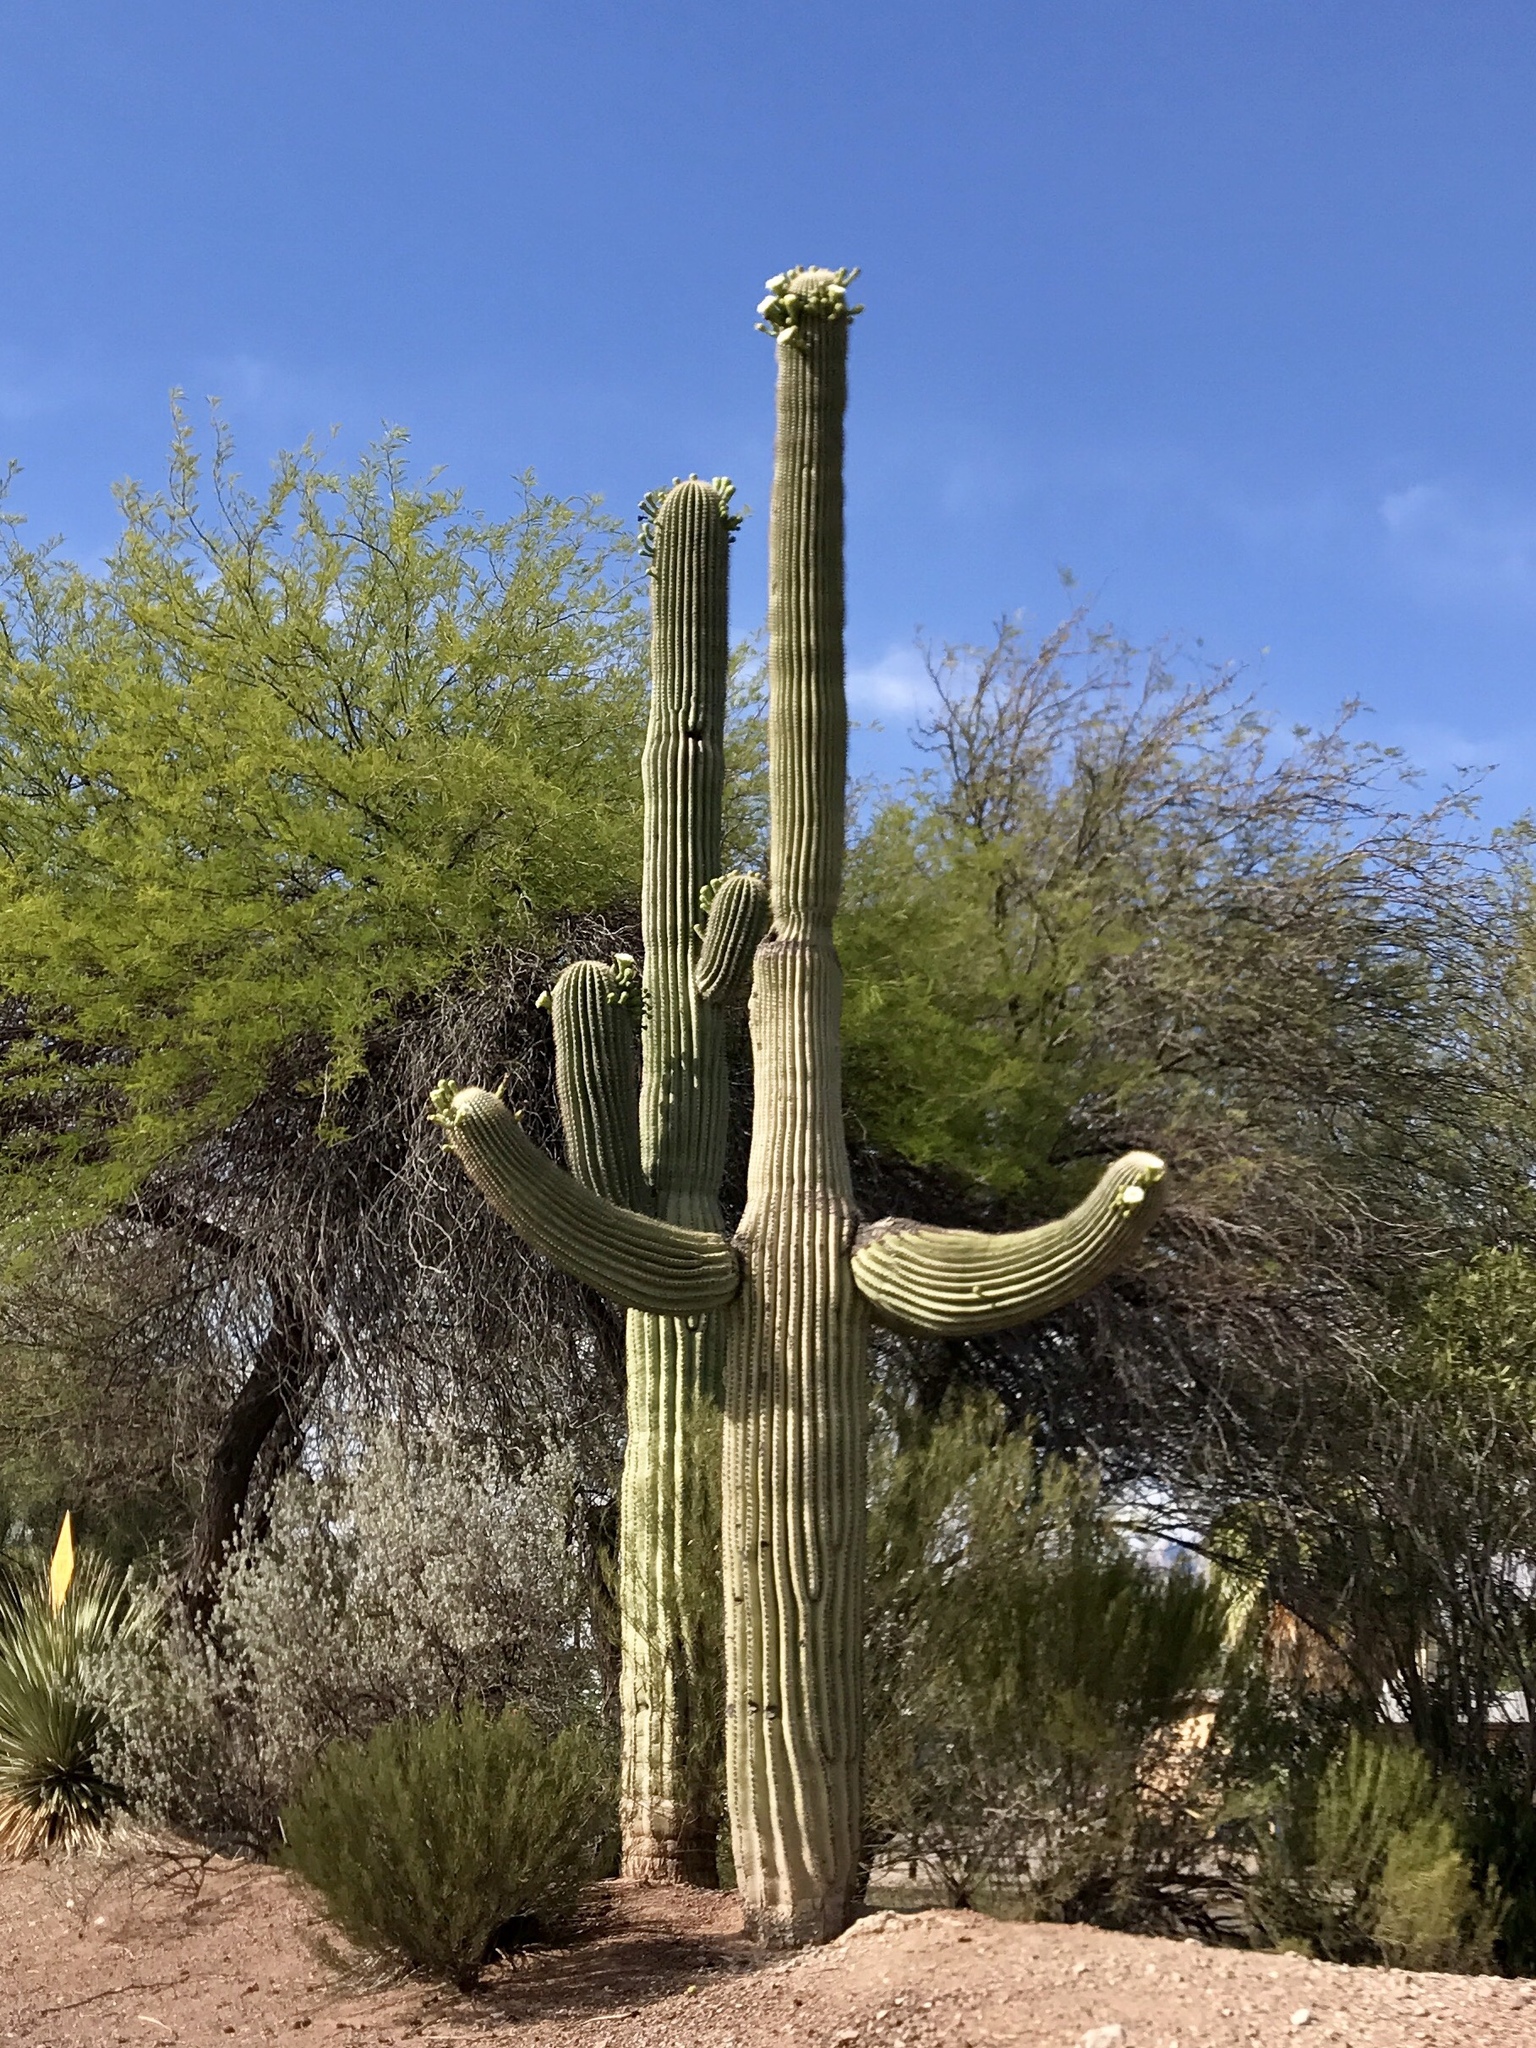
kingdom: Plantae
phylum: Tracheophyta
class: Magnoliopsida
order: Caryophyllales
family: Cactaceae
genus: Carnegiea
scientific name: Carnegiea gigantea
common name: Saguaro
